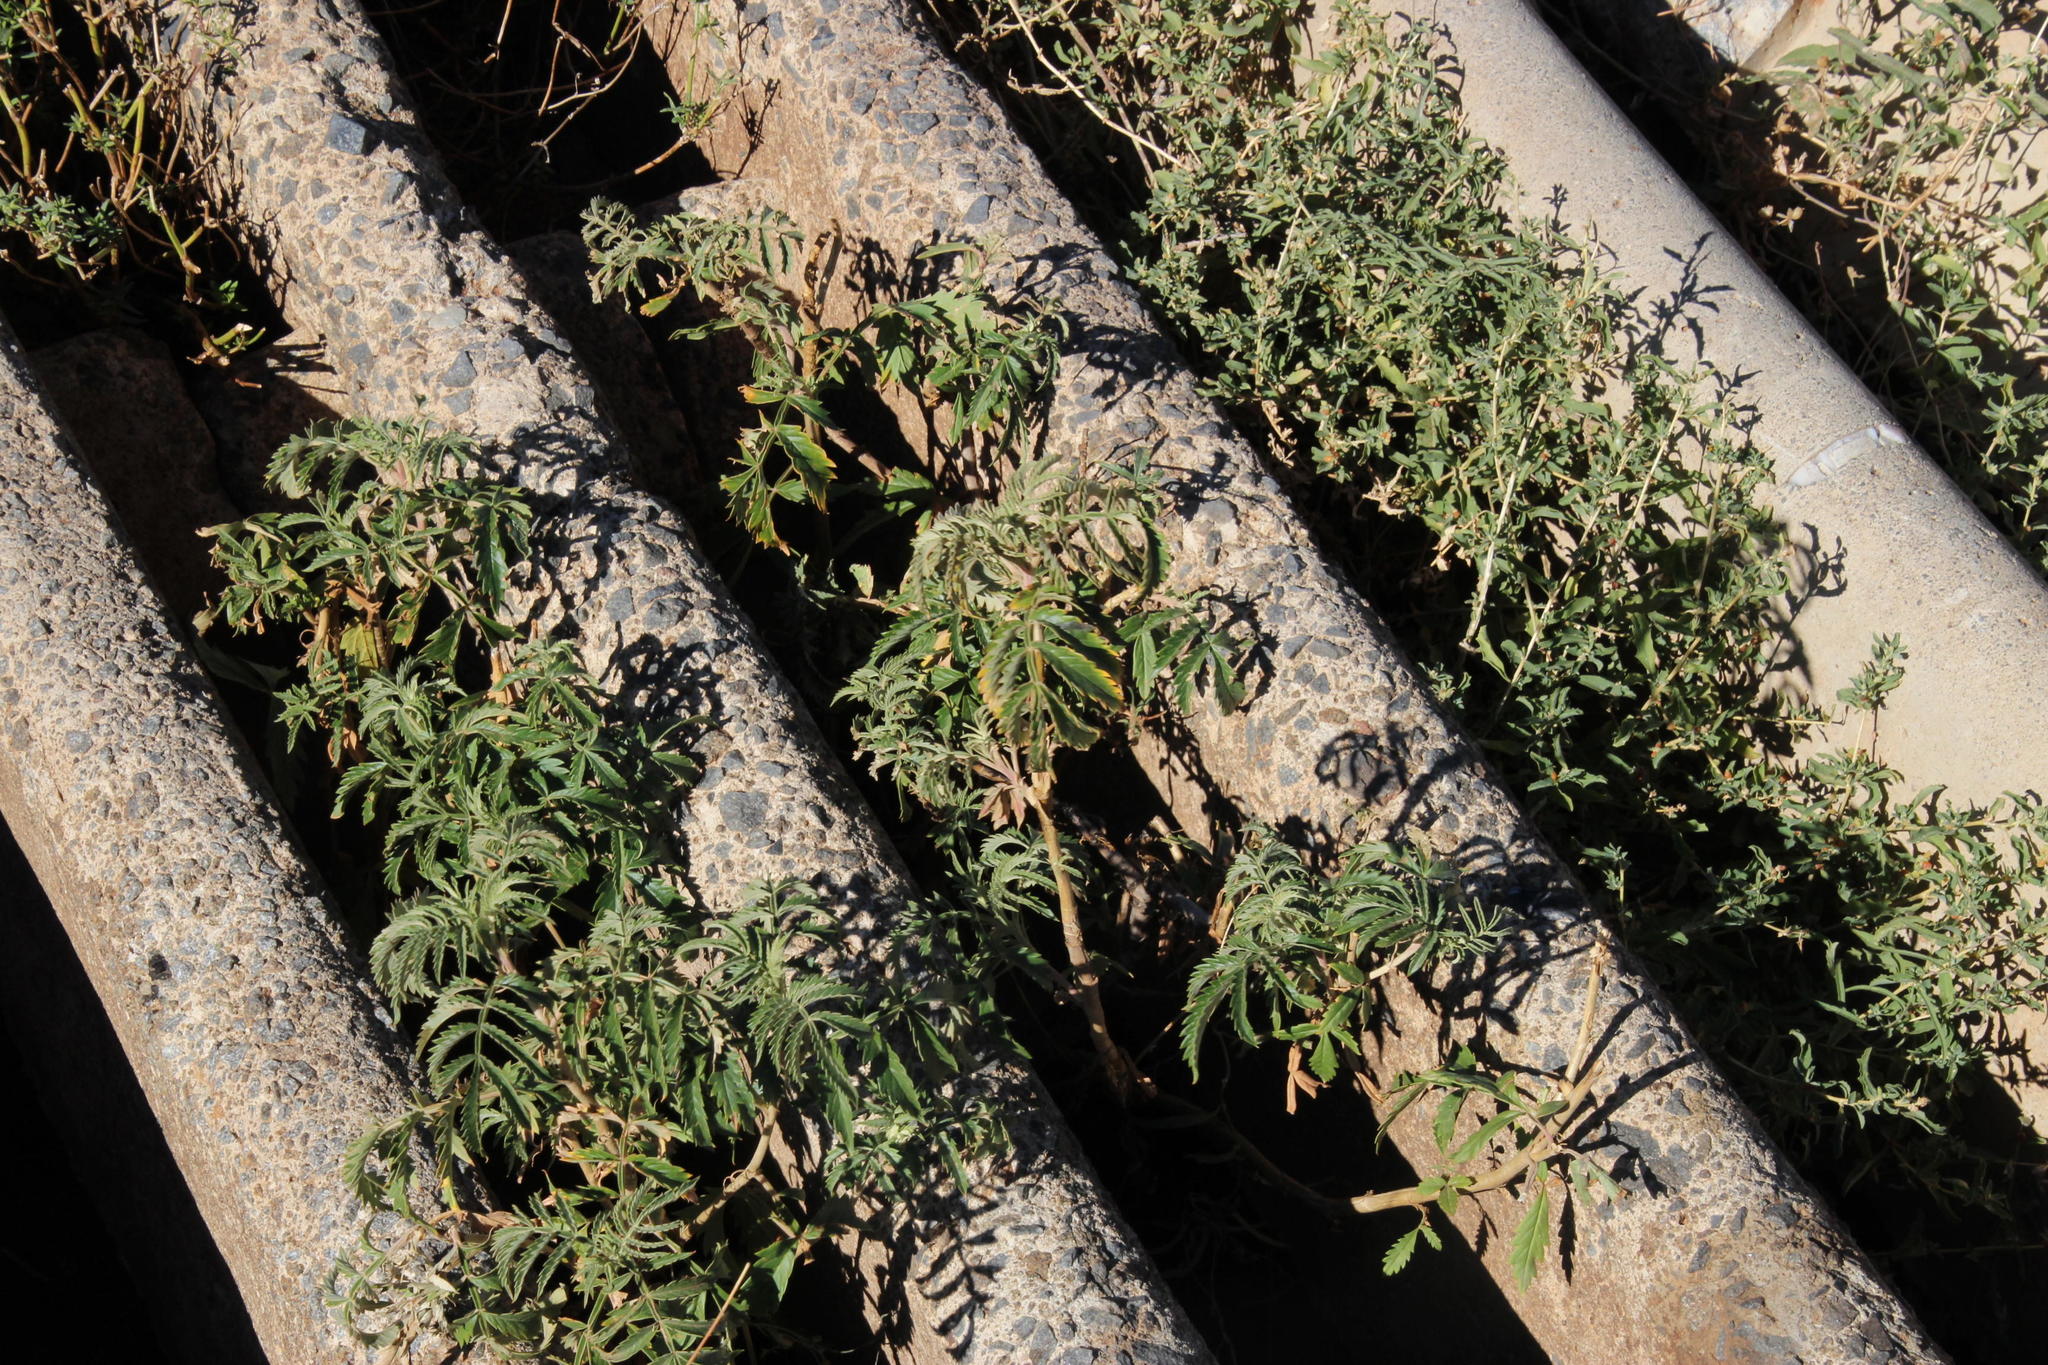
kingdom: Plantae
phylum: Tracheophyta
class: Magnoliopsida
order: Geraniales
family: Melianthaceae
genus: Melianthus
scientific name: Melianthus comosus
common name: Touch-me-not
